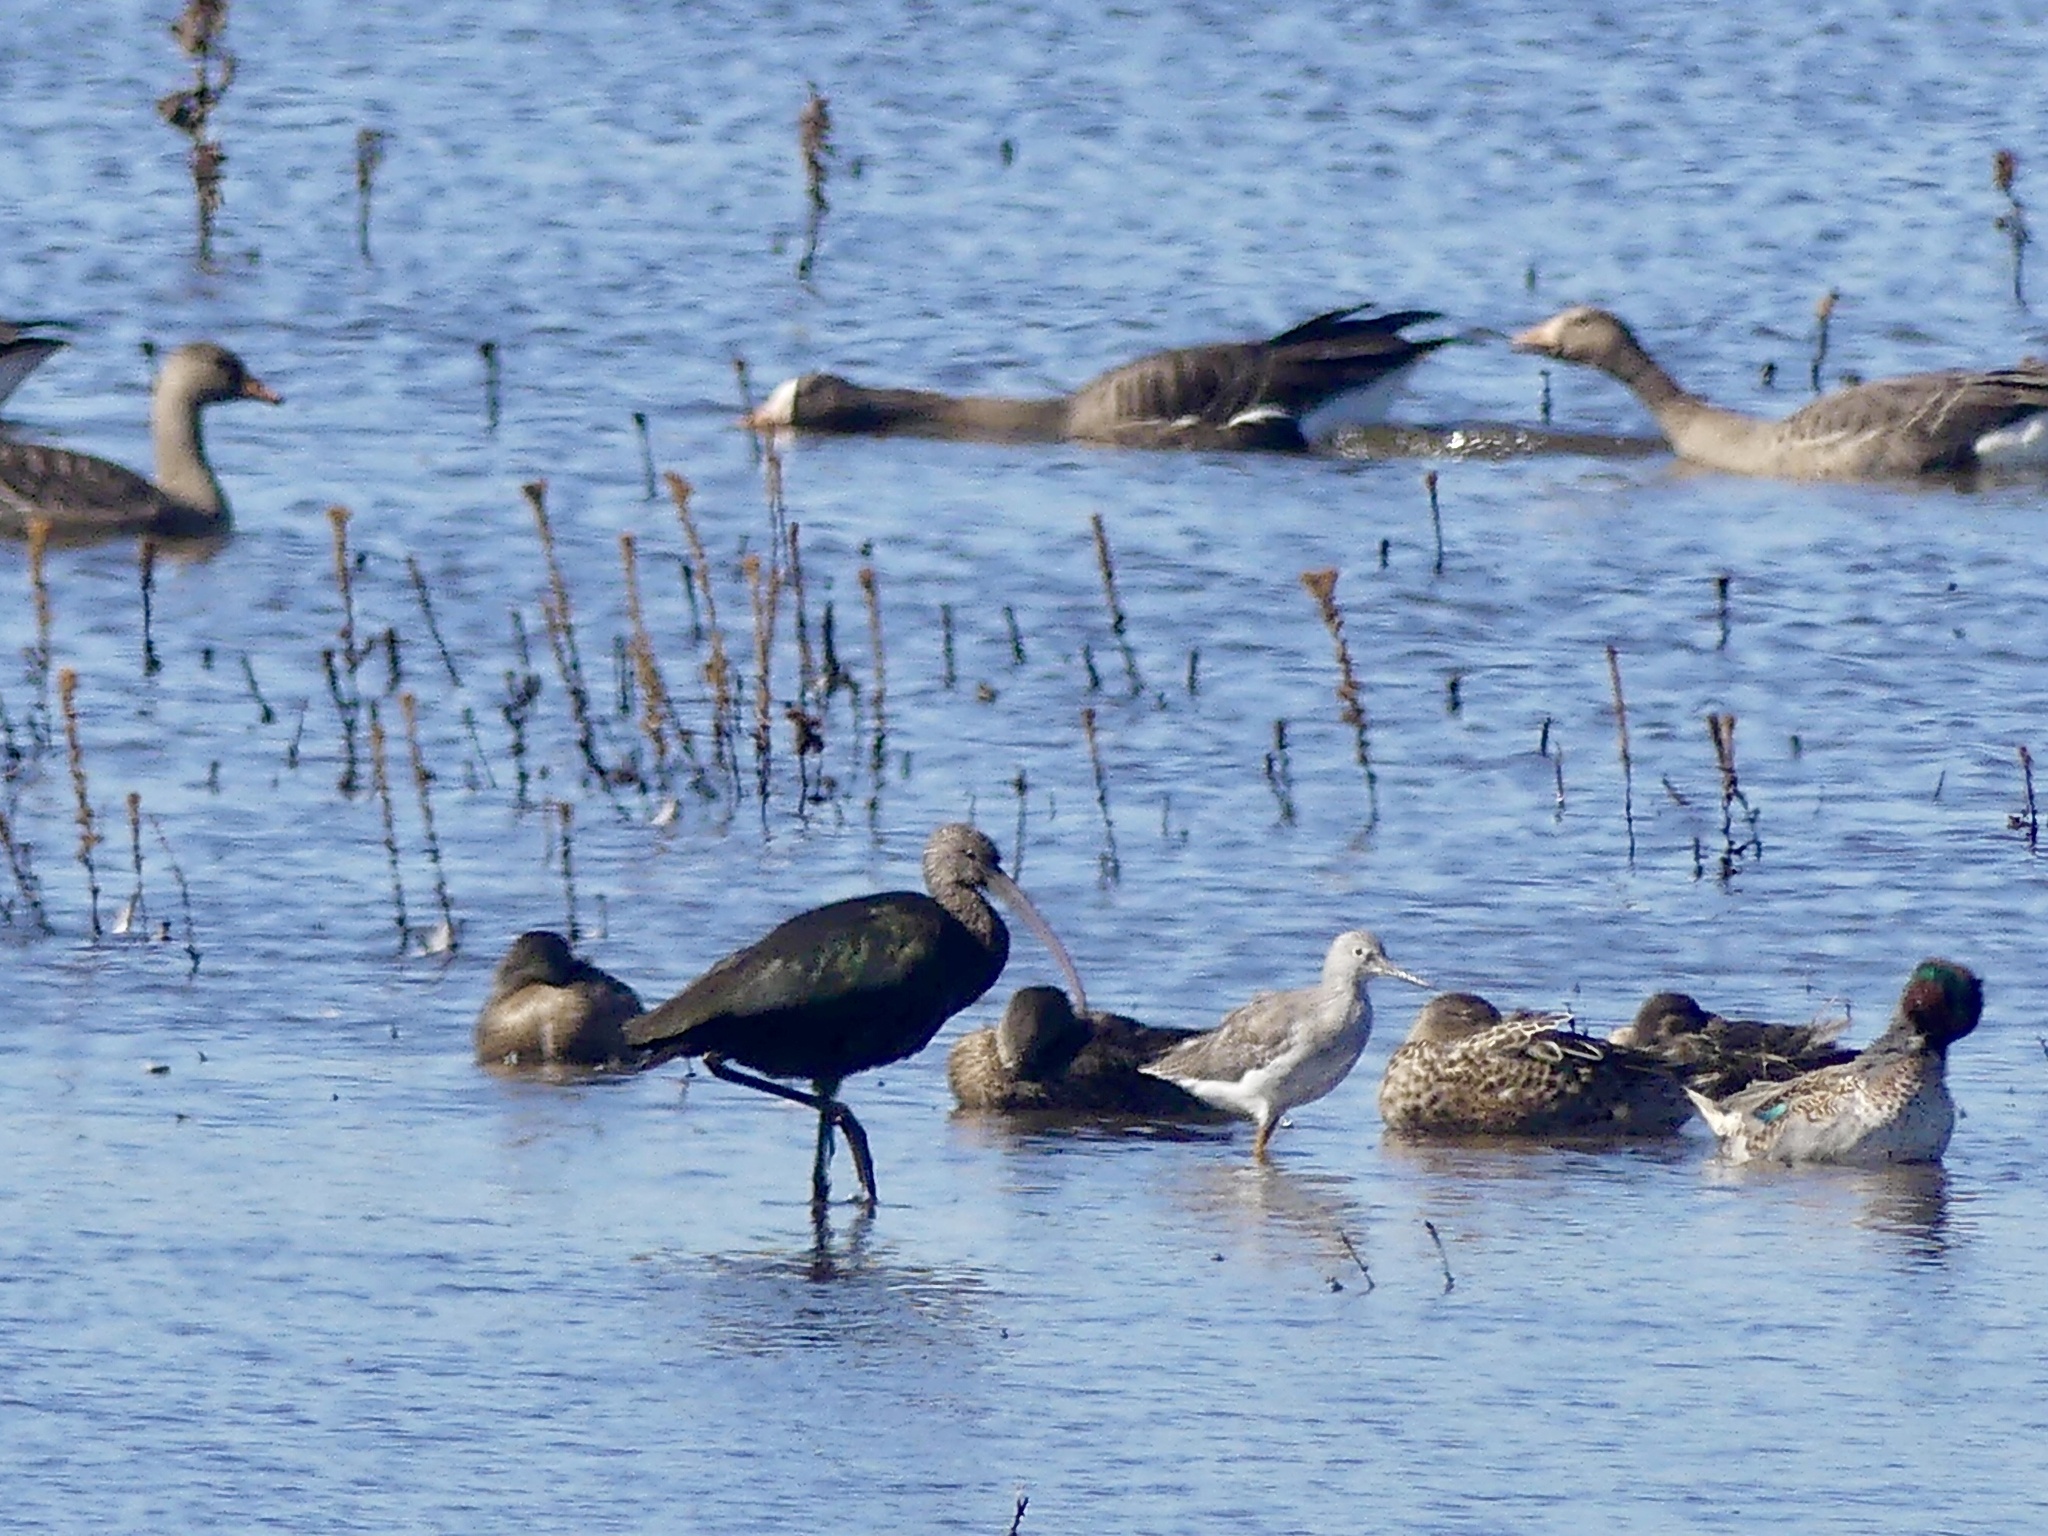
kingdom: Animalia
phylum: Chordata
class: Aves
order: Pelecaniformes
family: Threskiornithidae
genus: Plegadis
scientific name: Plegadis chihi
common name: White-faced ibis
